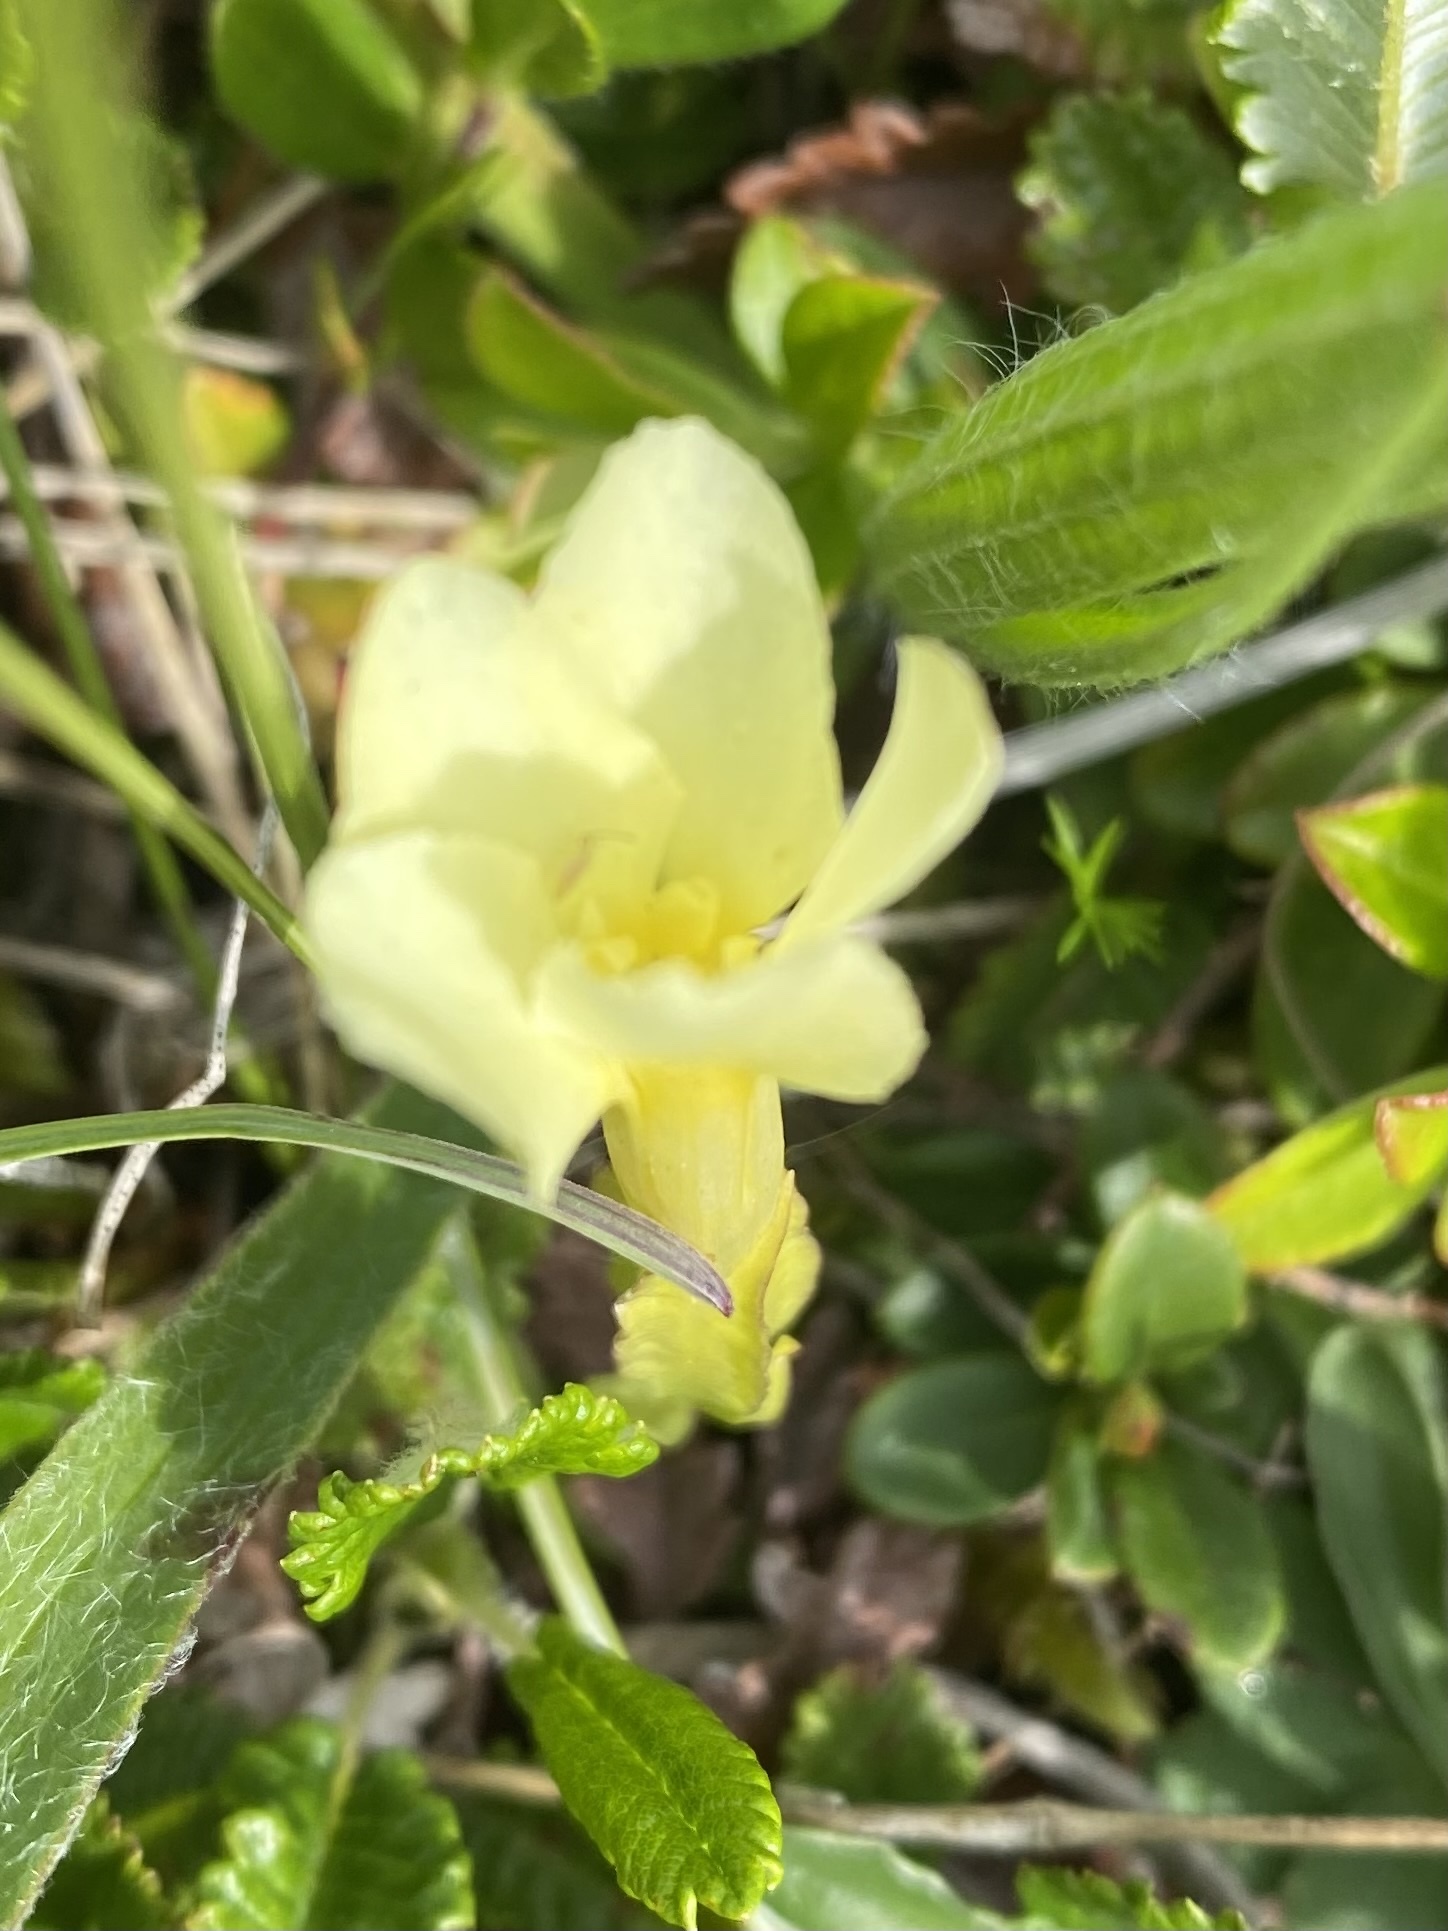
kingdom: Plantae
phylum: Tracheophyta
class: Magnoliopsida
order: Gentianales
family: Gentianaceae
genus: Gentiana
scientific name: Gentiana verna
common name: Spring gentian
